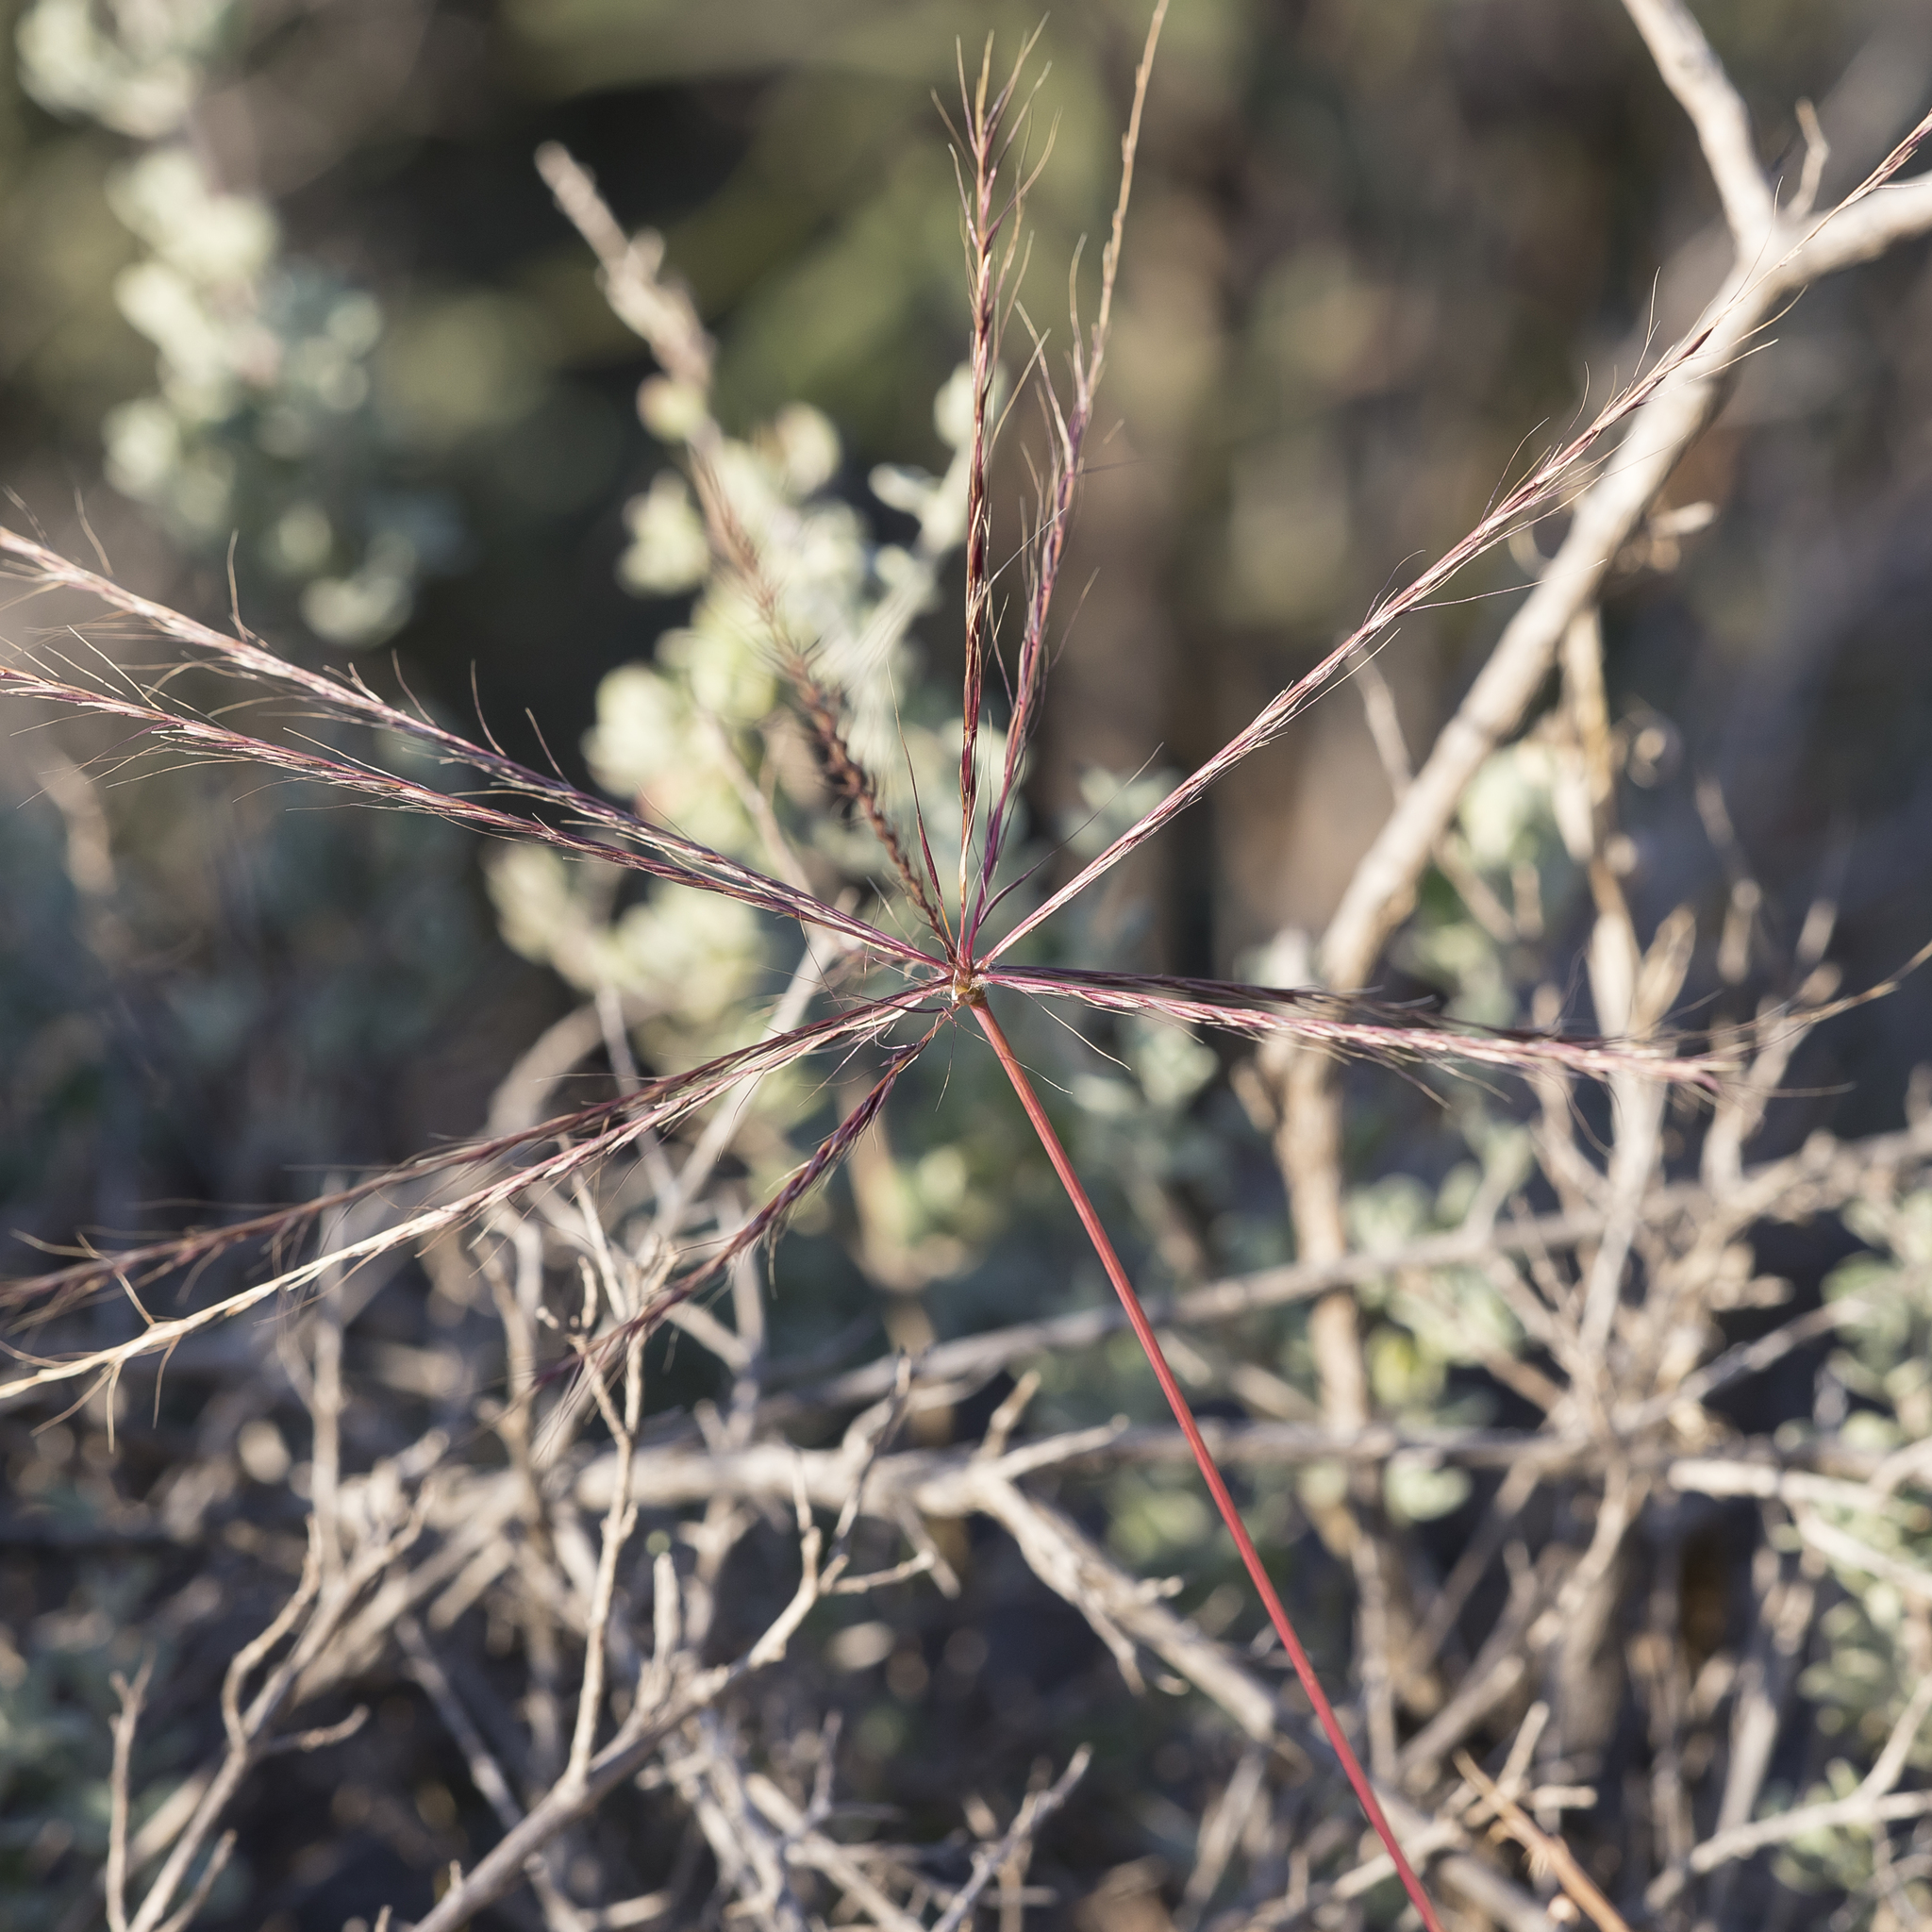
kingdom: Plantae
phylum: Tracheophyta
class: Liliopsida
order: Poales
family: Poaceae
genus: Enteropogon
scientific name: Enteropogon acicularis
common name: Curly windmill grass
